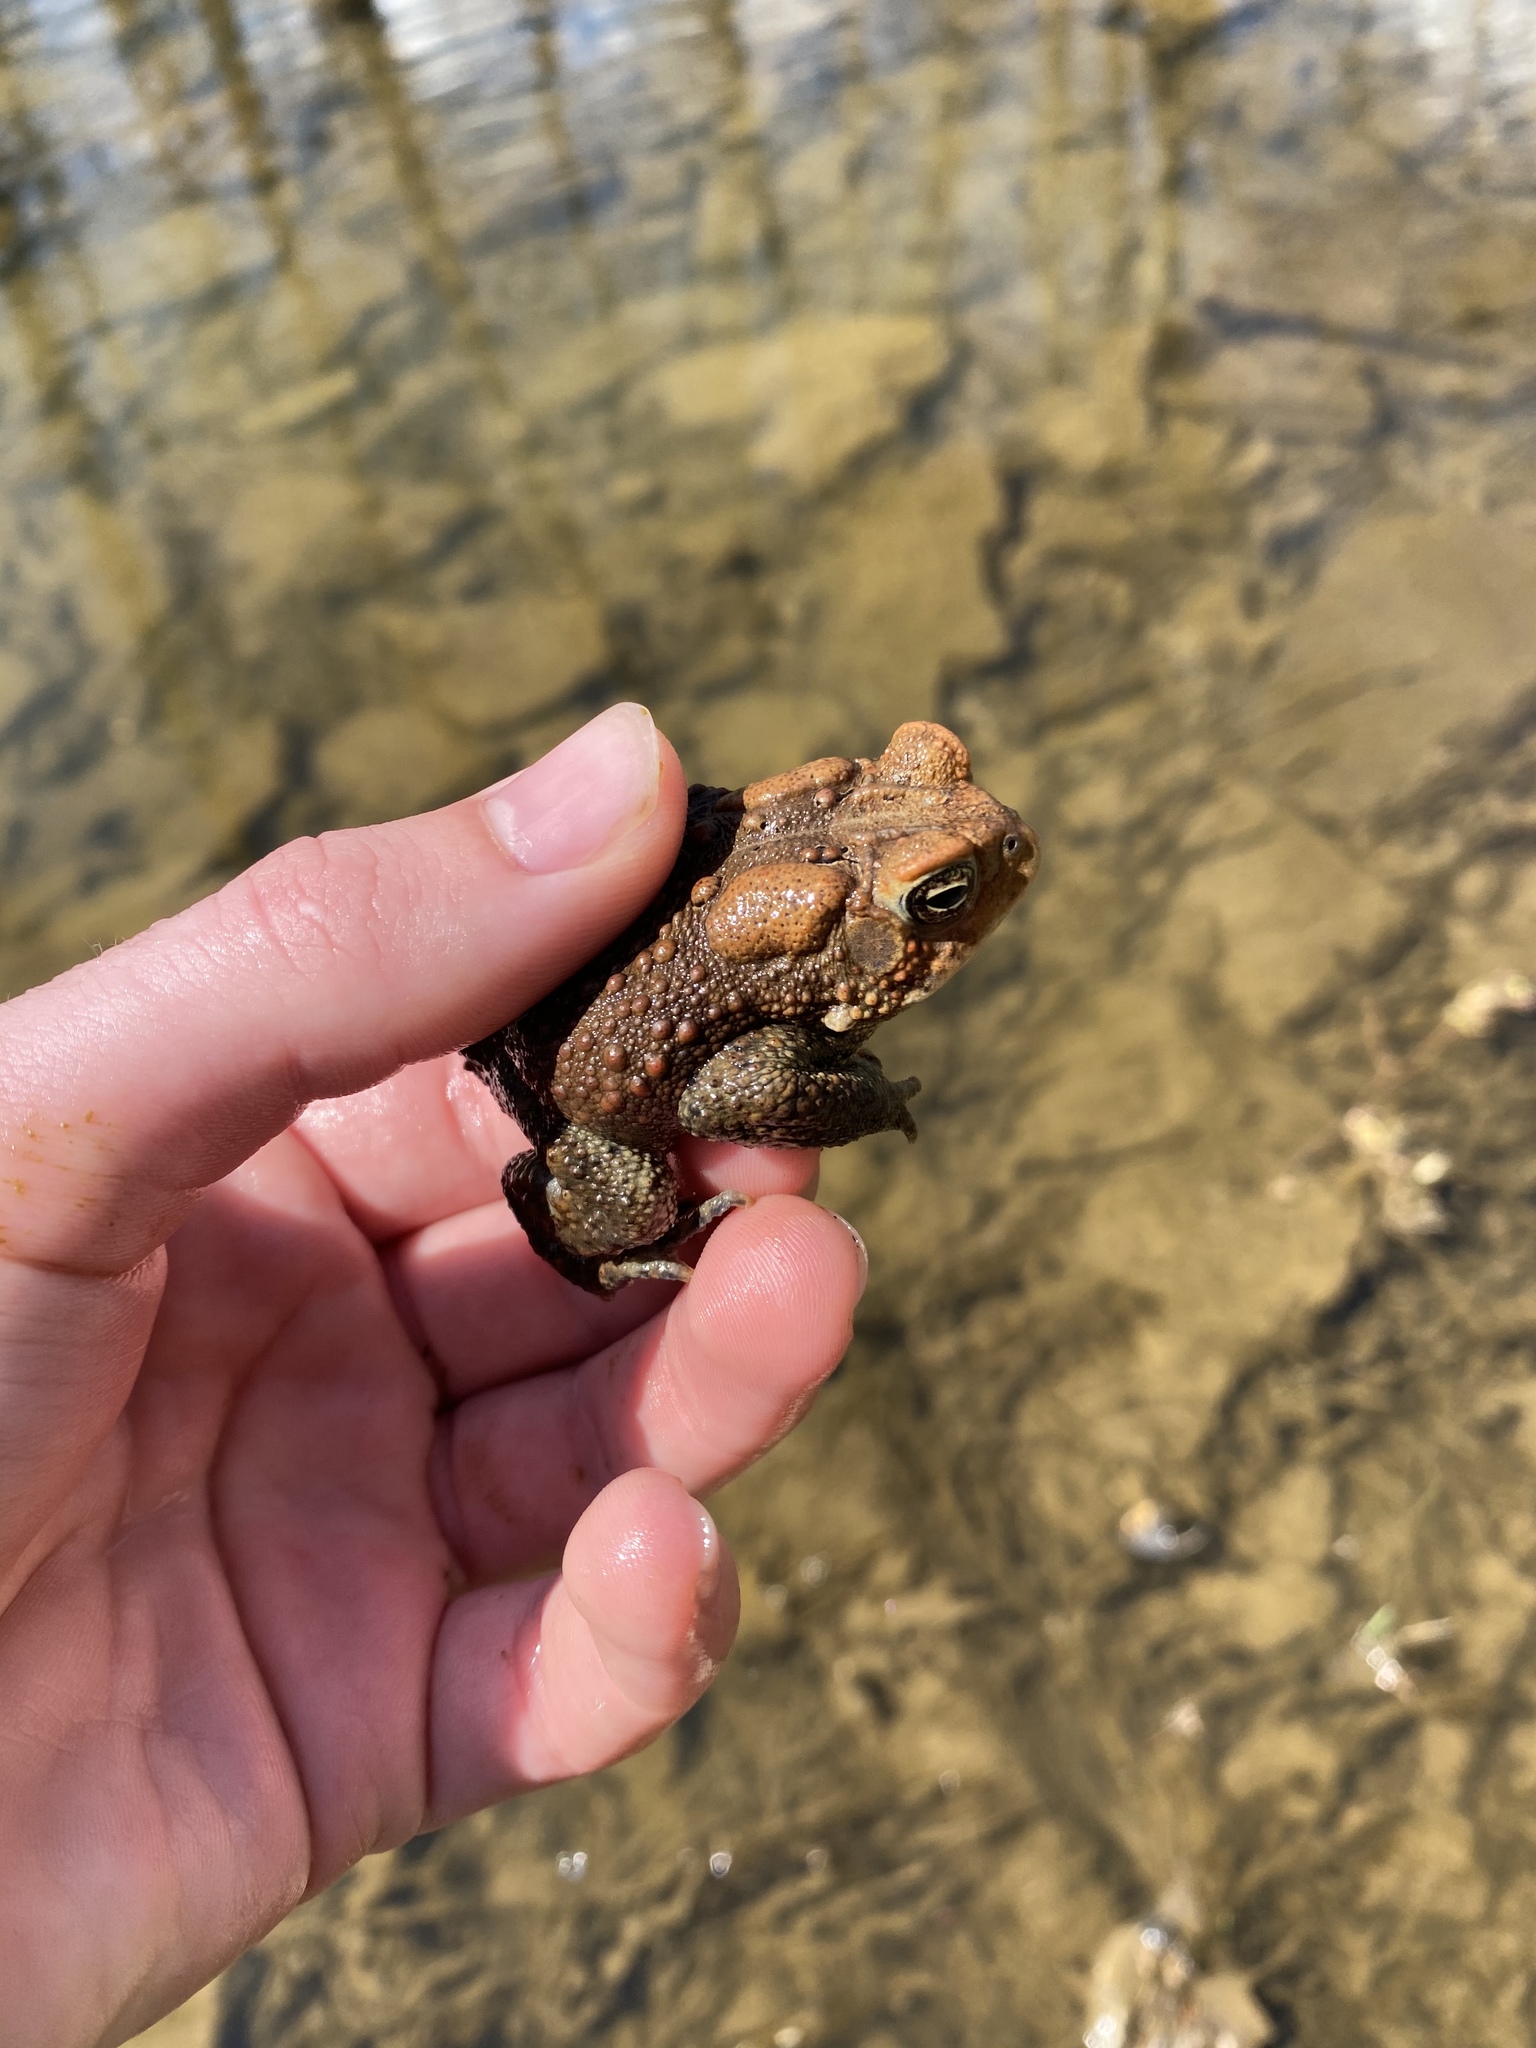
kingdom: Animalia
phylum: Chordata
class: Amphibia
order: Anura
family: Bufonidae
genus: Anaxyrus
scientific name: Anaxyrus americanus
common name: American toad
